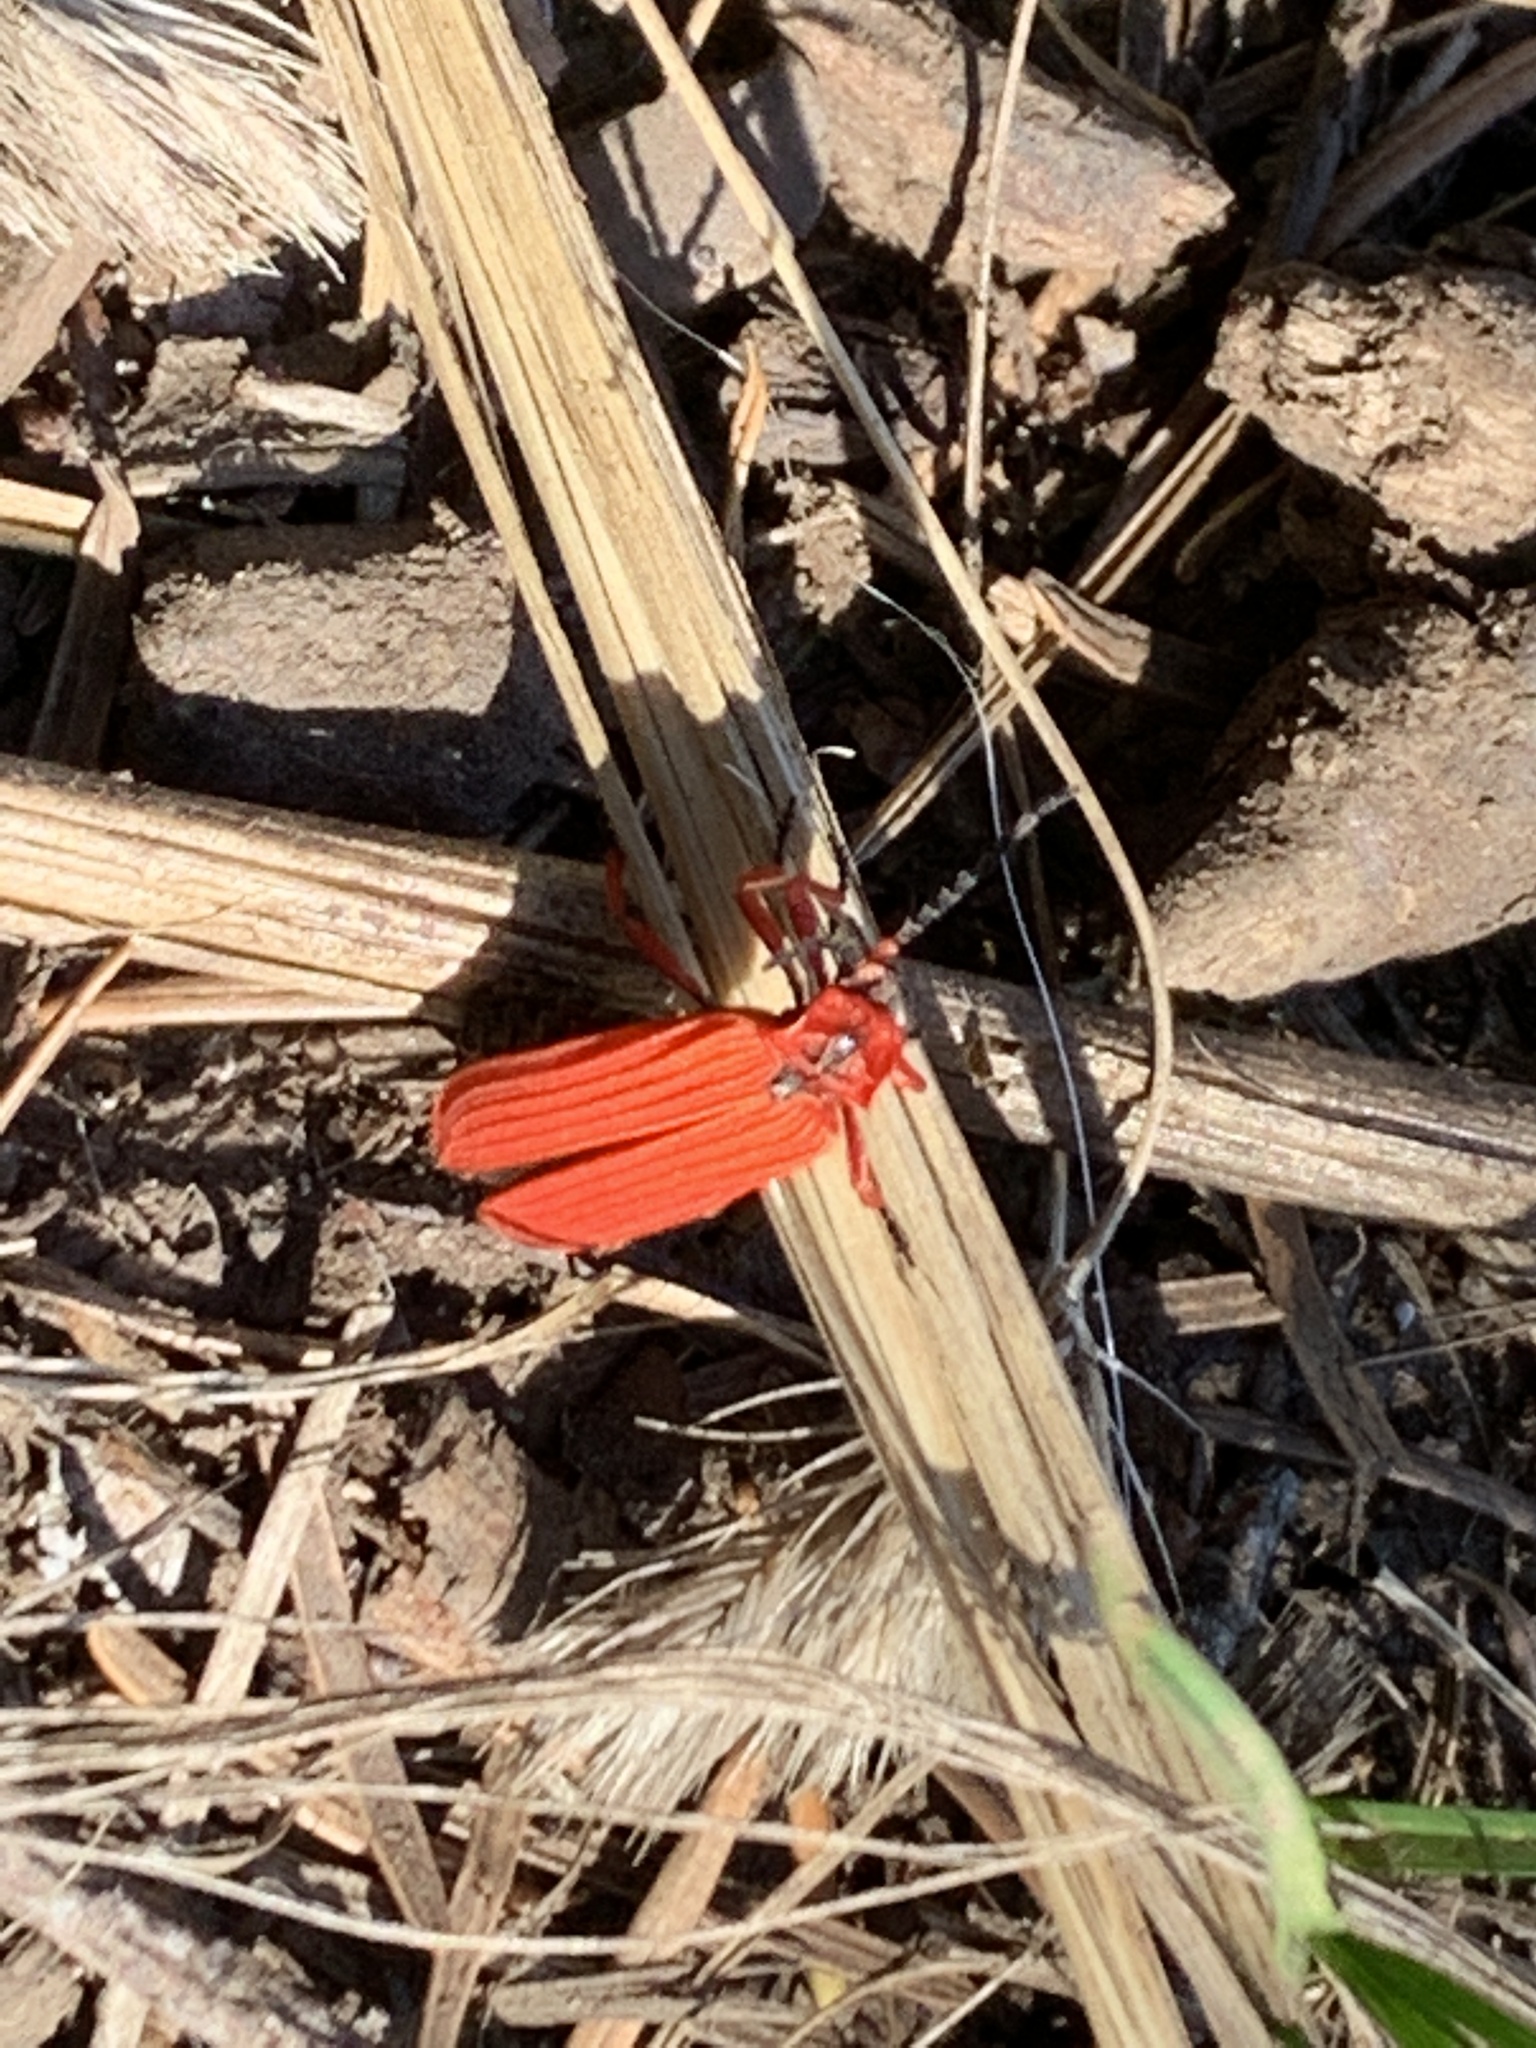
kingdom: Animalia
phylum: Arthropoda
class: Insecta
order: Coleoptera
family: Lycidae
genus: Dictyoptera
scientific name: Dictyoptera simplicipes
